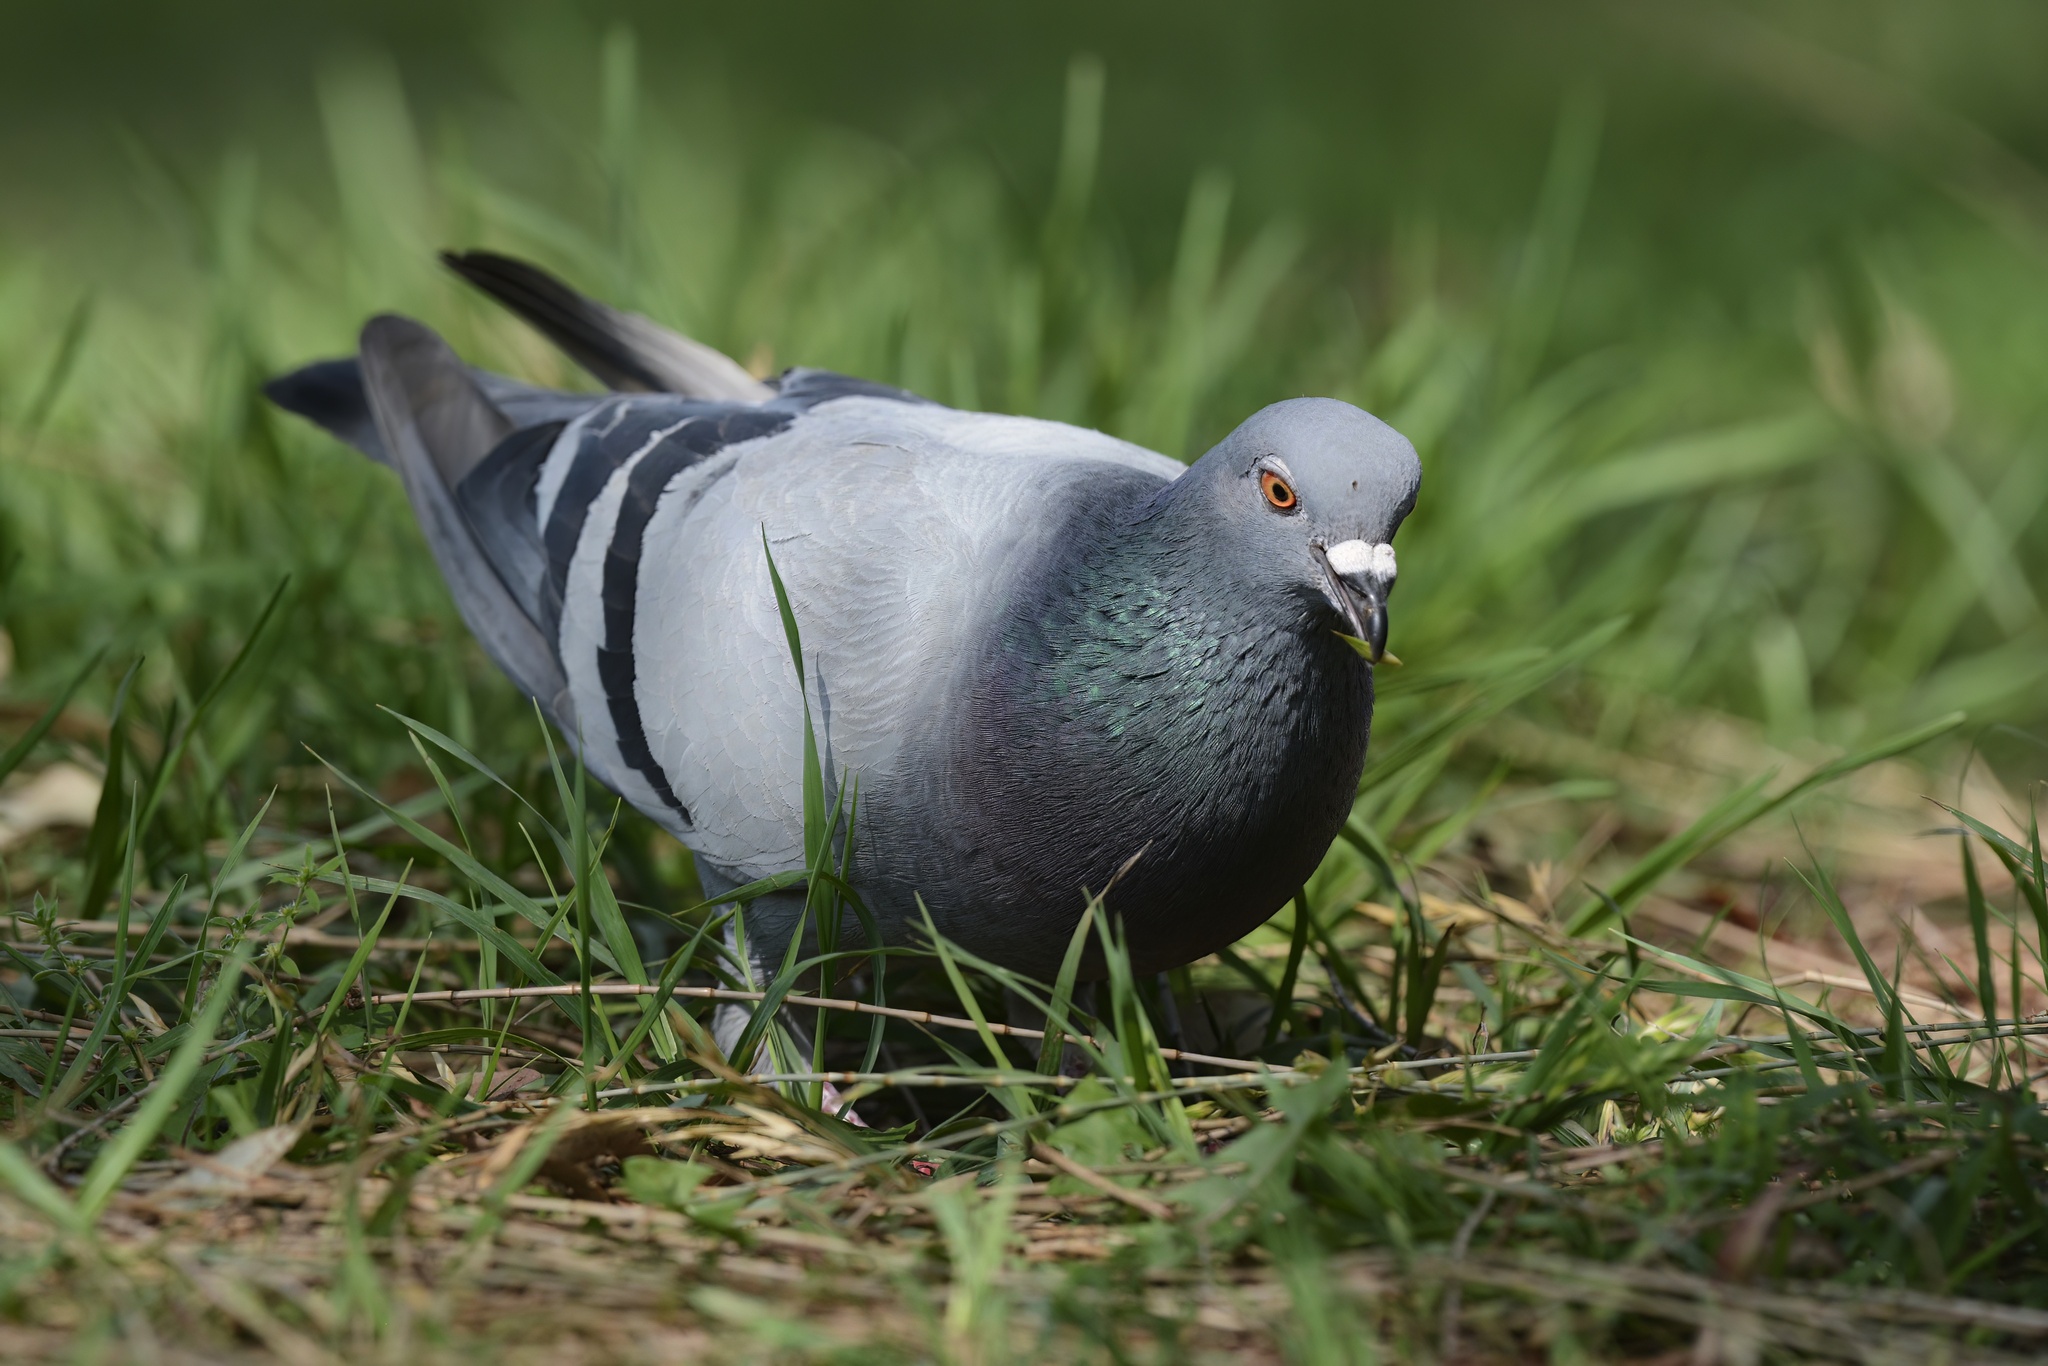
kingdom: Animalia
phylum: Chordata
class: Aves
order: Columbiformes
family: Columbidae
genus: Columba
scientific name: Columba livia
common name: Rock pigeon
